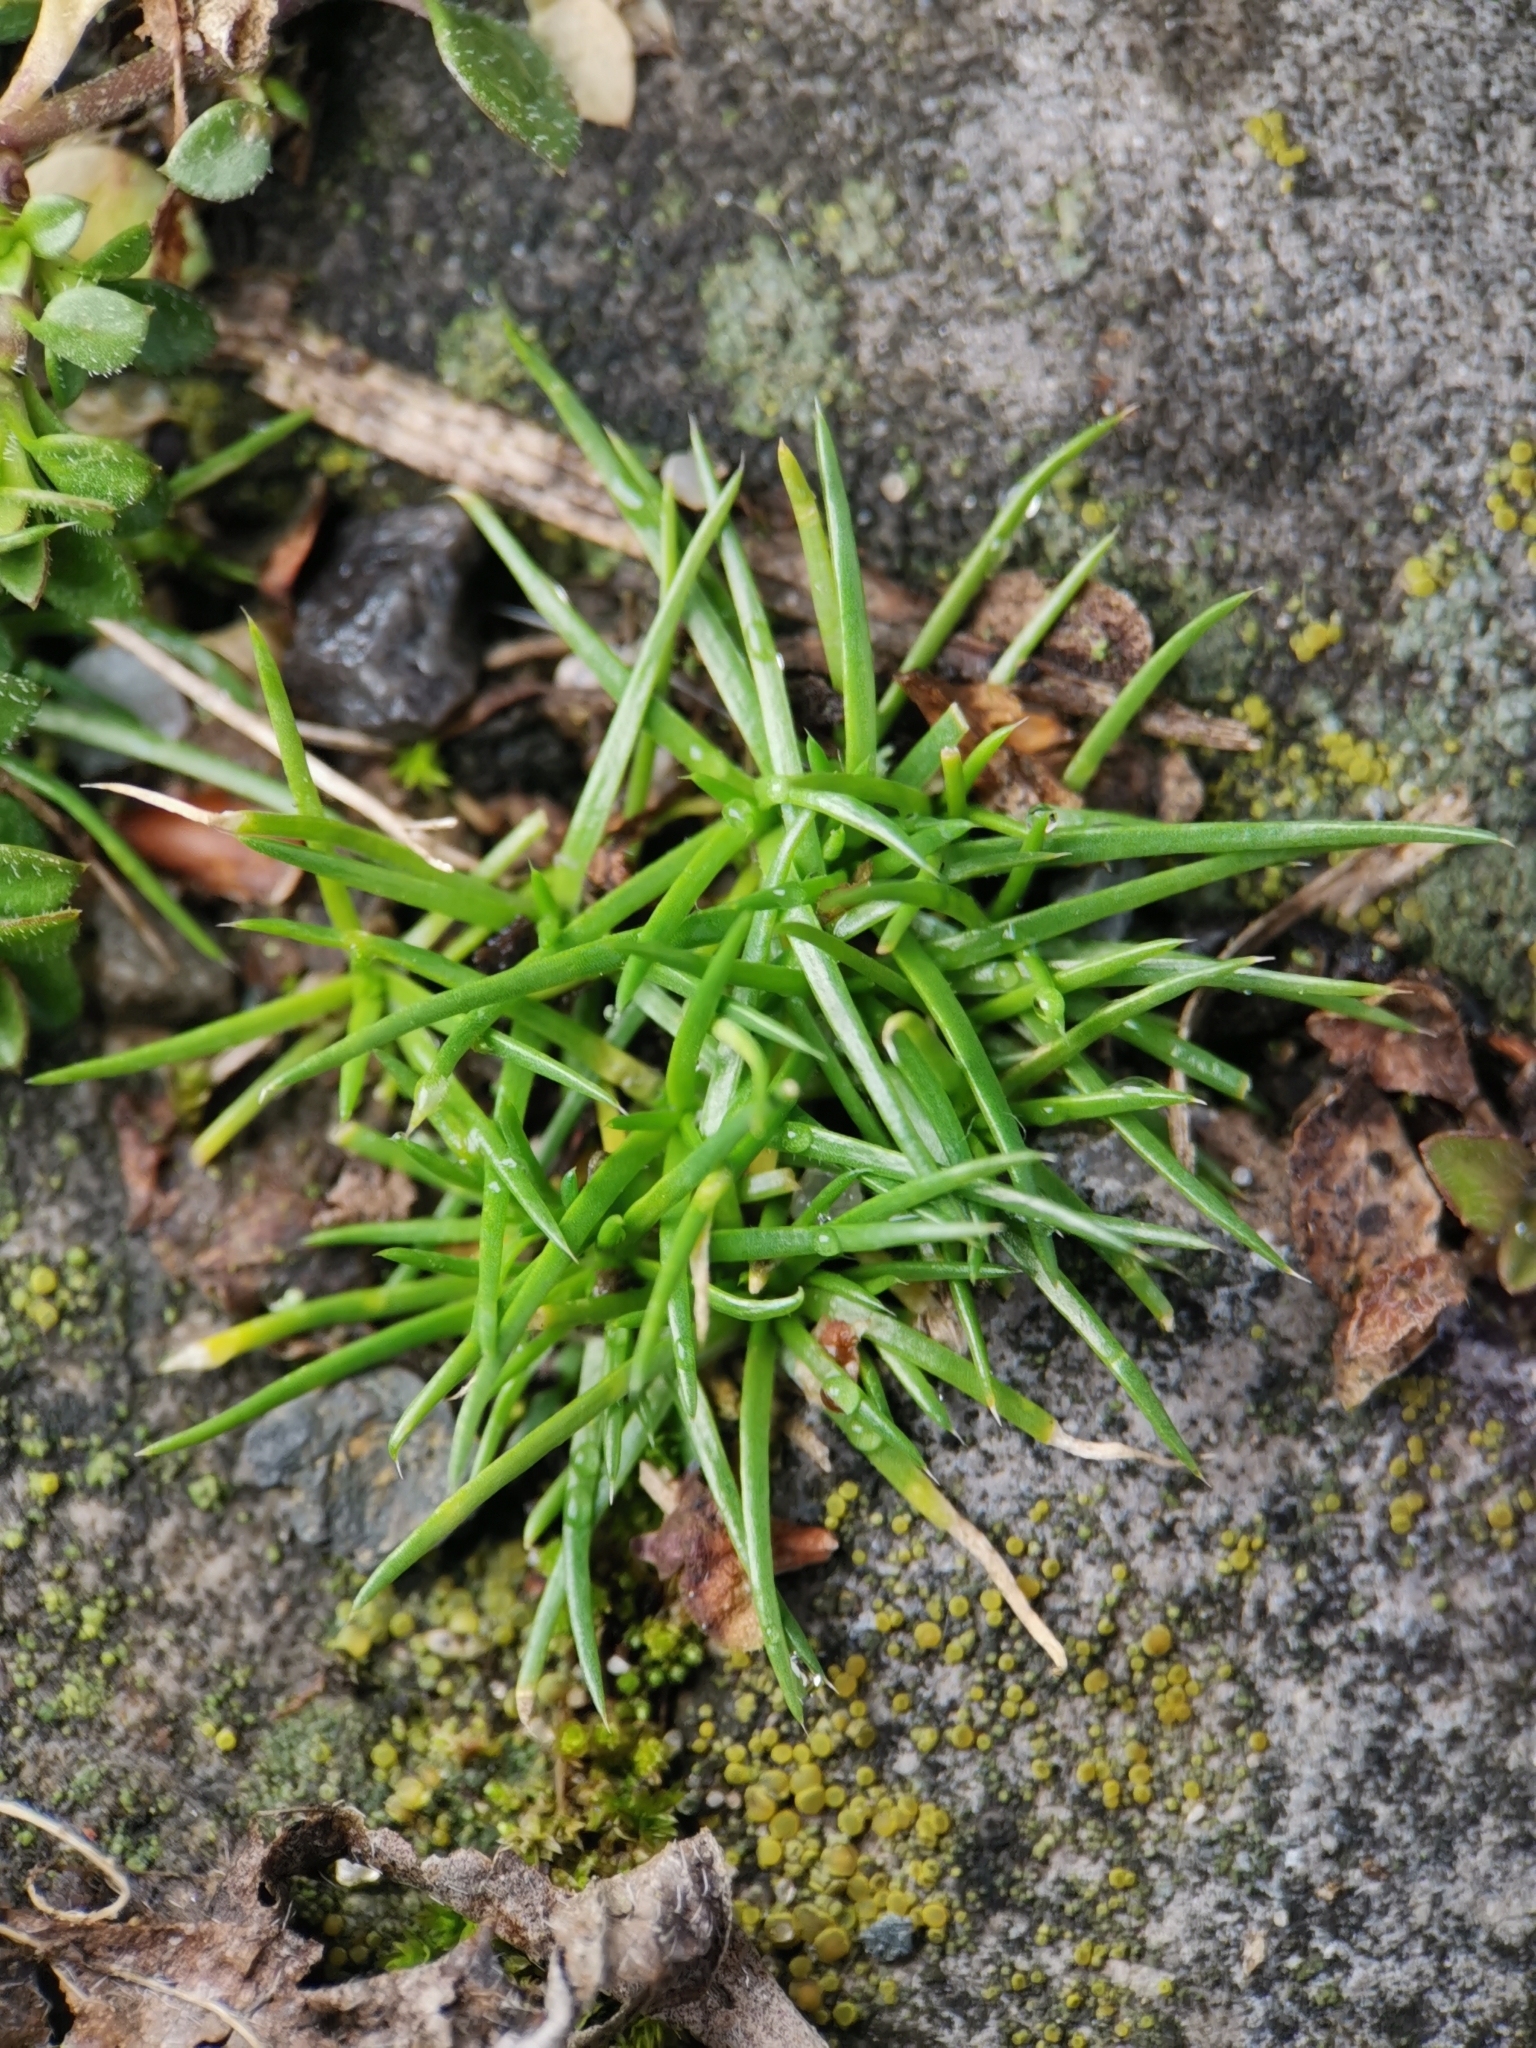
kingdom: Plantae
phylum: Tracheophyta
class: Magnoliopsida
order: Caryophyllales
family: Caryophyllaceae
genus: Sagina
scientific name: Sagina procumbens
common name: Procumbent pearlwort
